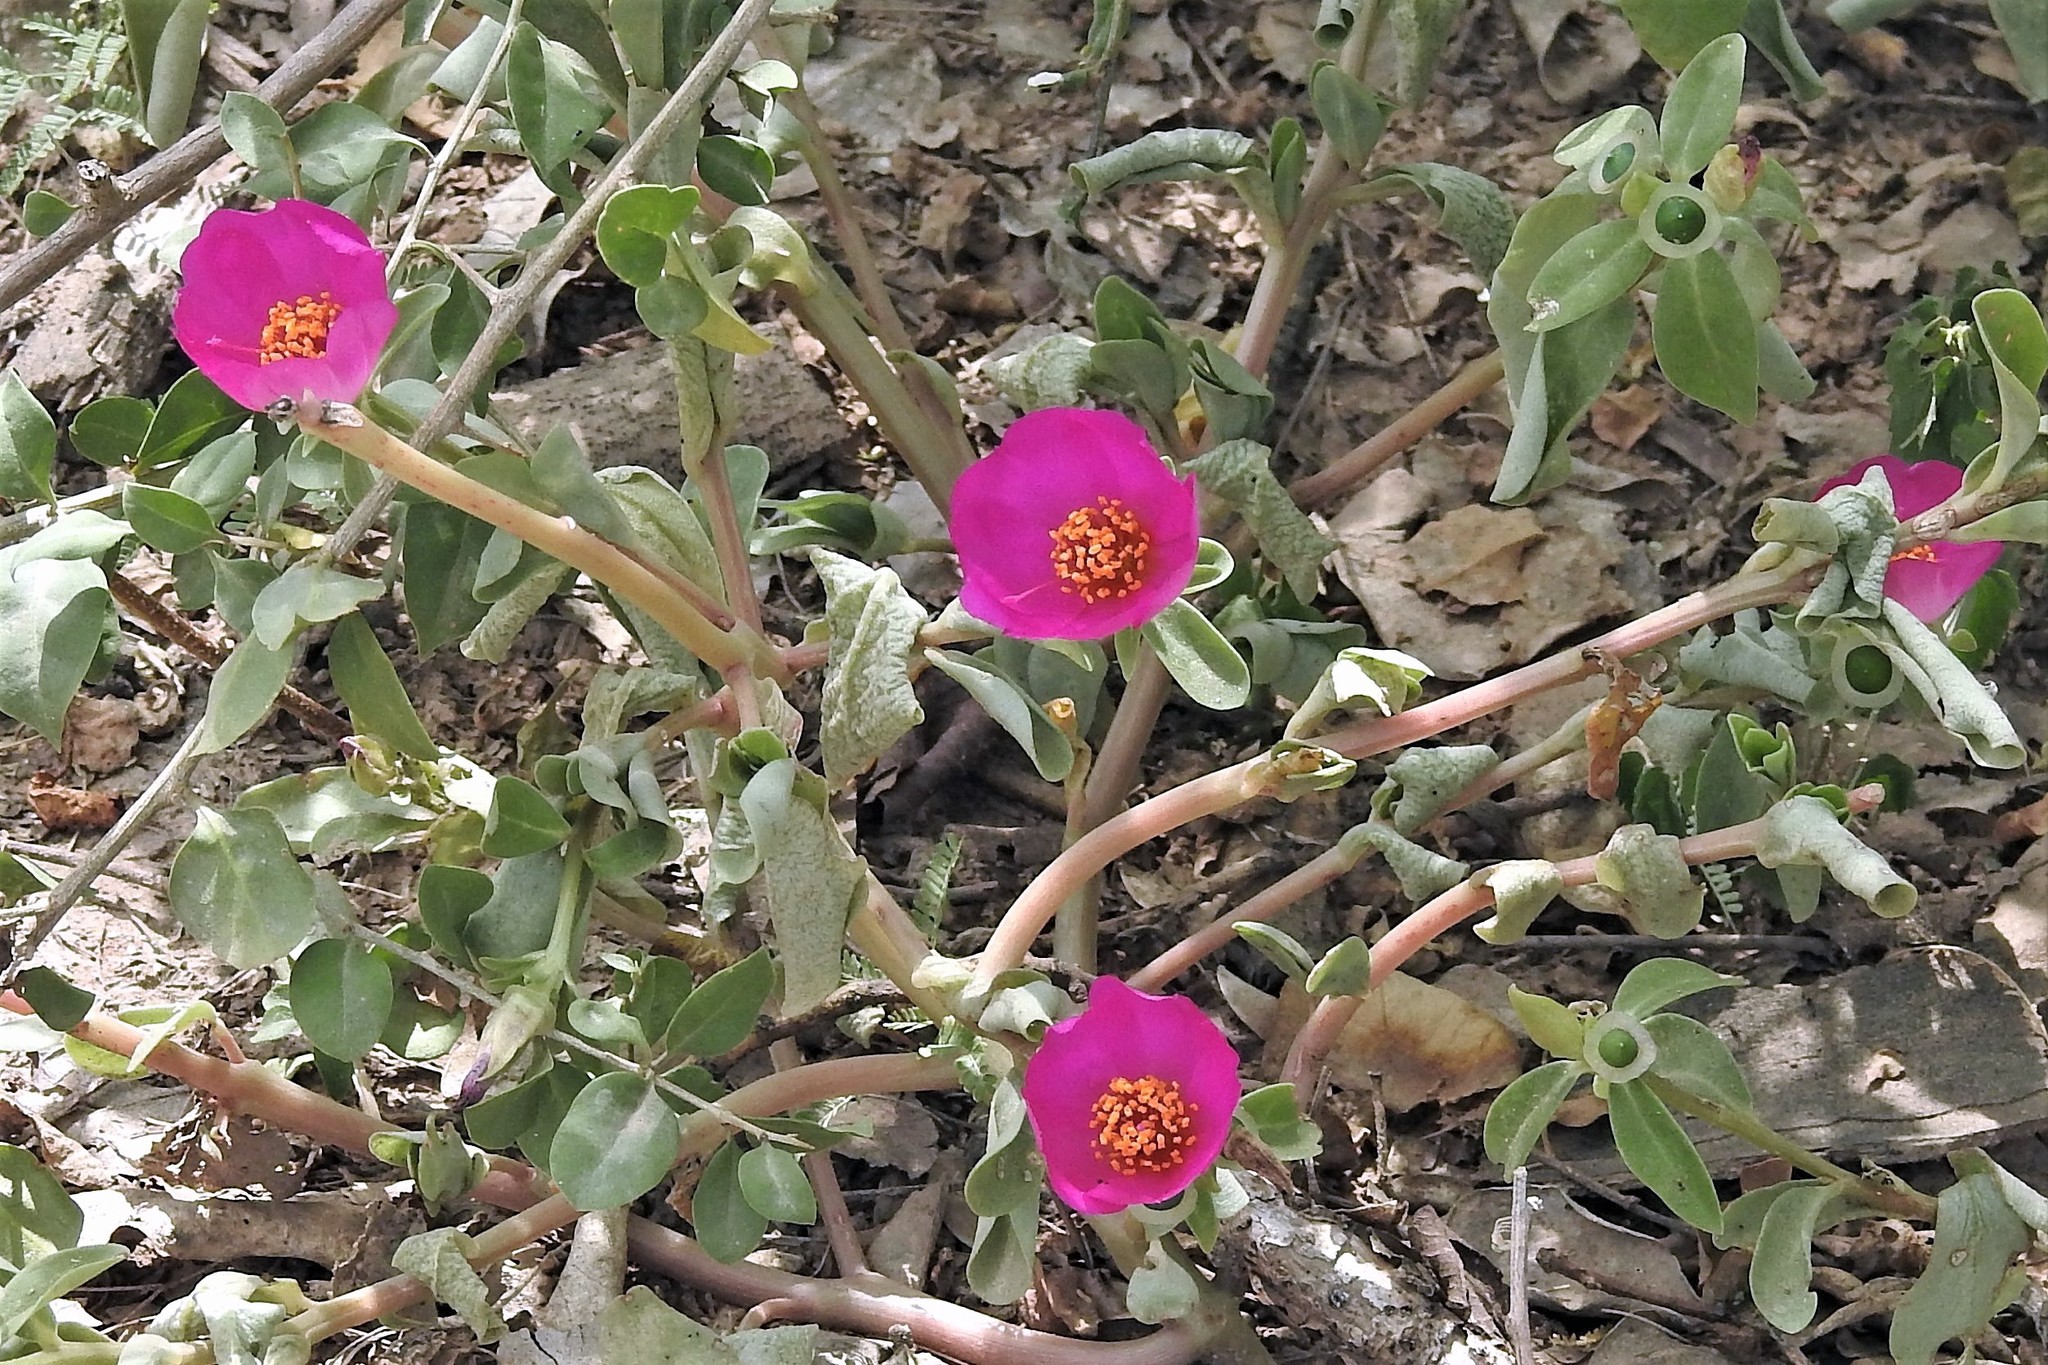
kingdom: Plantae
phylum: Tracheophyta
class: Magnoliopsida
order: Caryophyllales
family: Portulacaceae
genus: Portulaca
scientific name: Portulaca umbraticola
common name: Wingpod purslane
